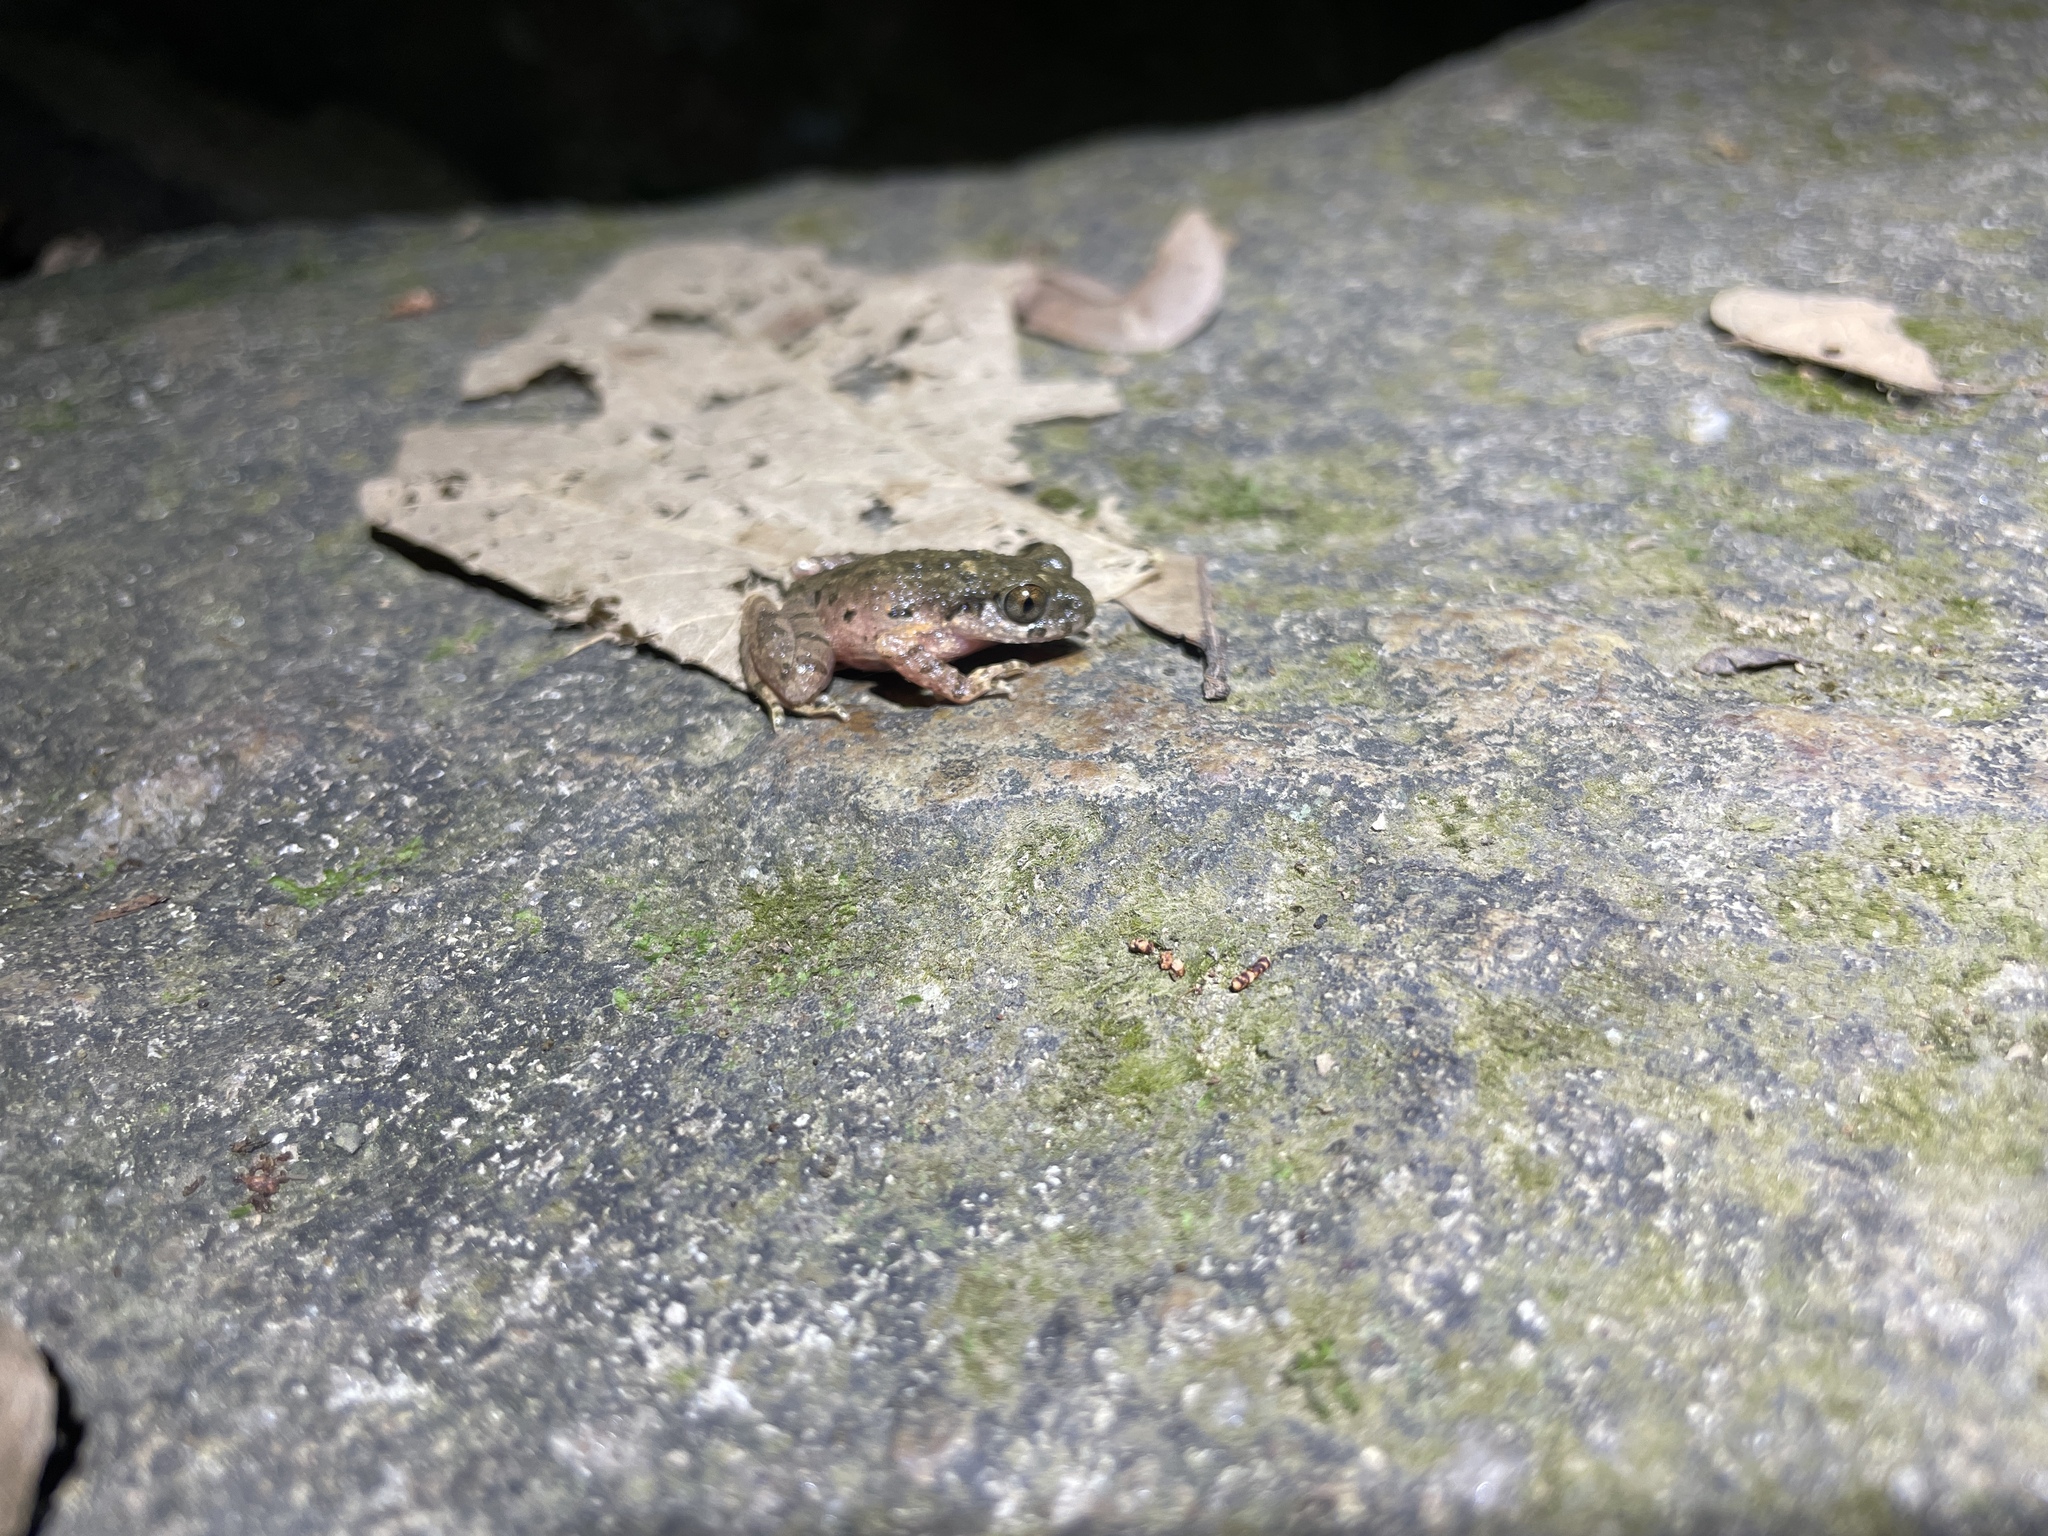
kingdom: Animalia
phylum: Chordata
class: Amphibia
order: Anura
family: Megophryidae
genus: Leptobrachella
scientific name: Leptobrachella laui
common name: Lau's leaf little toad
